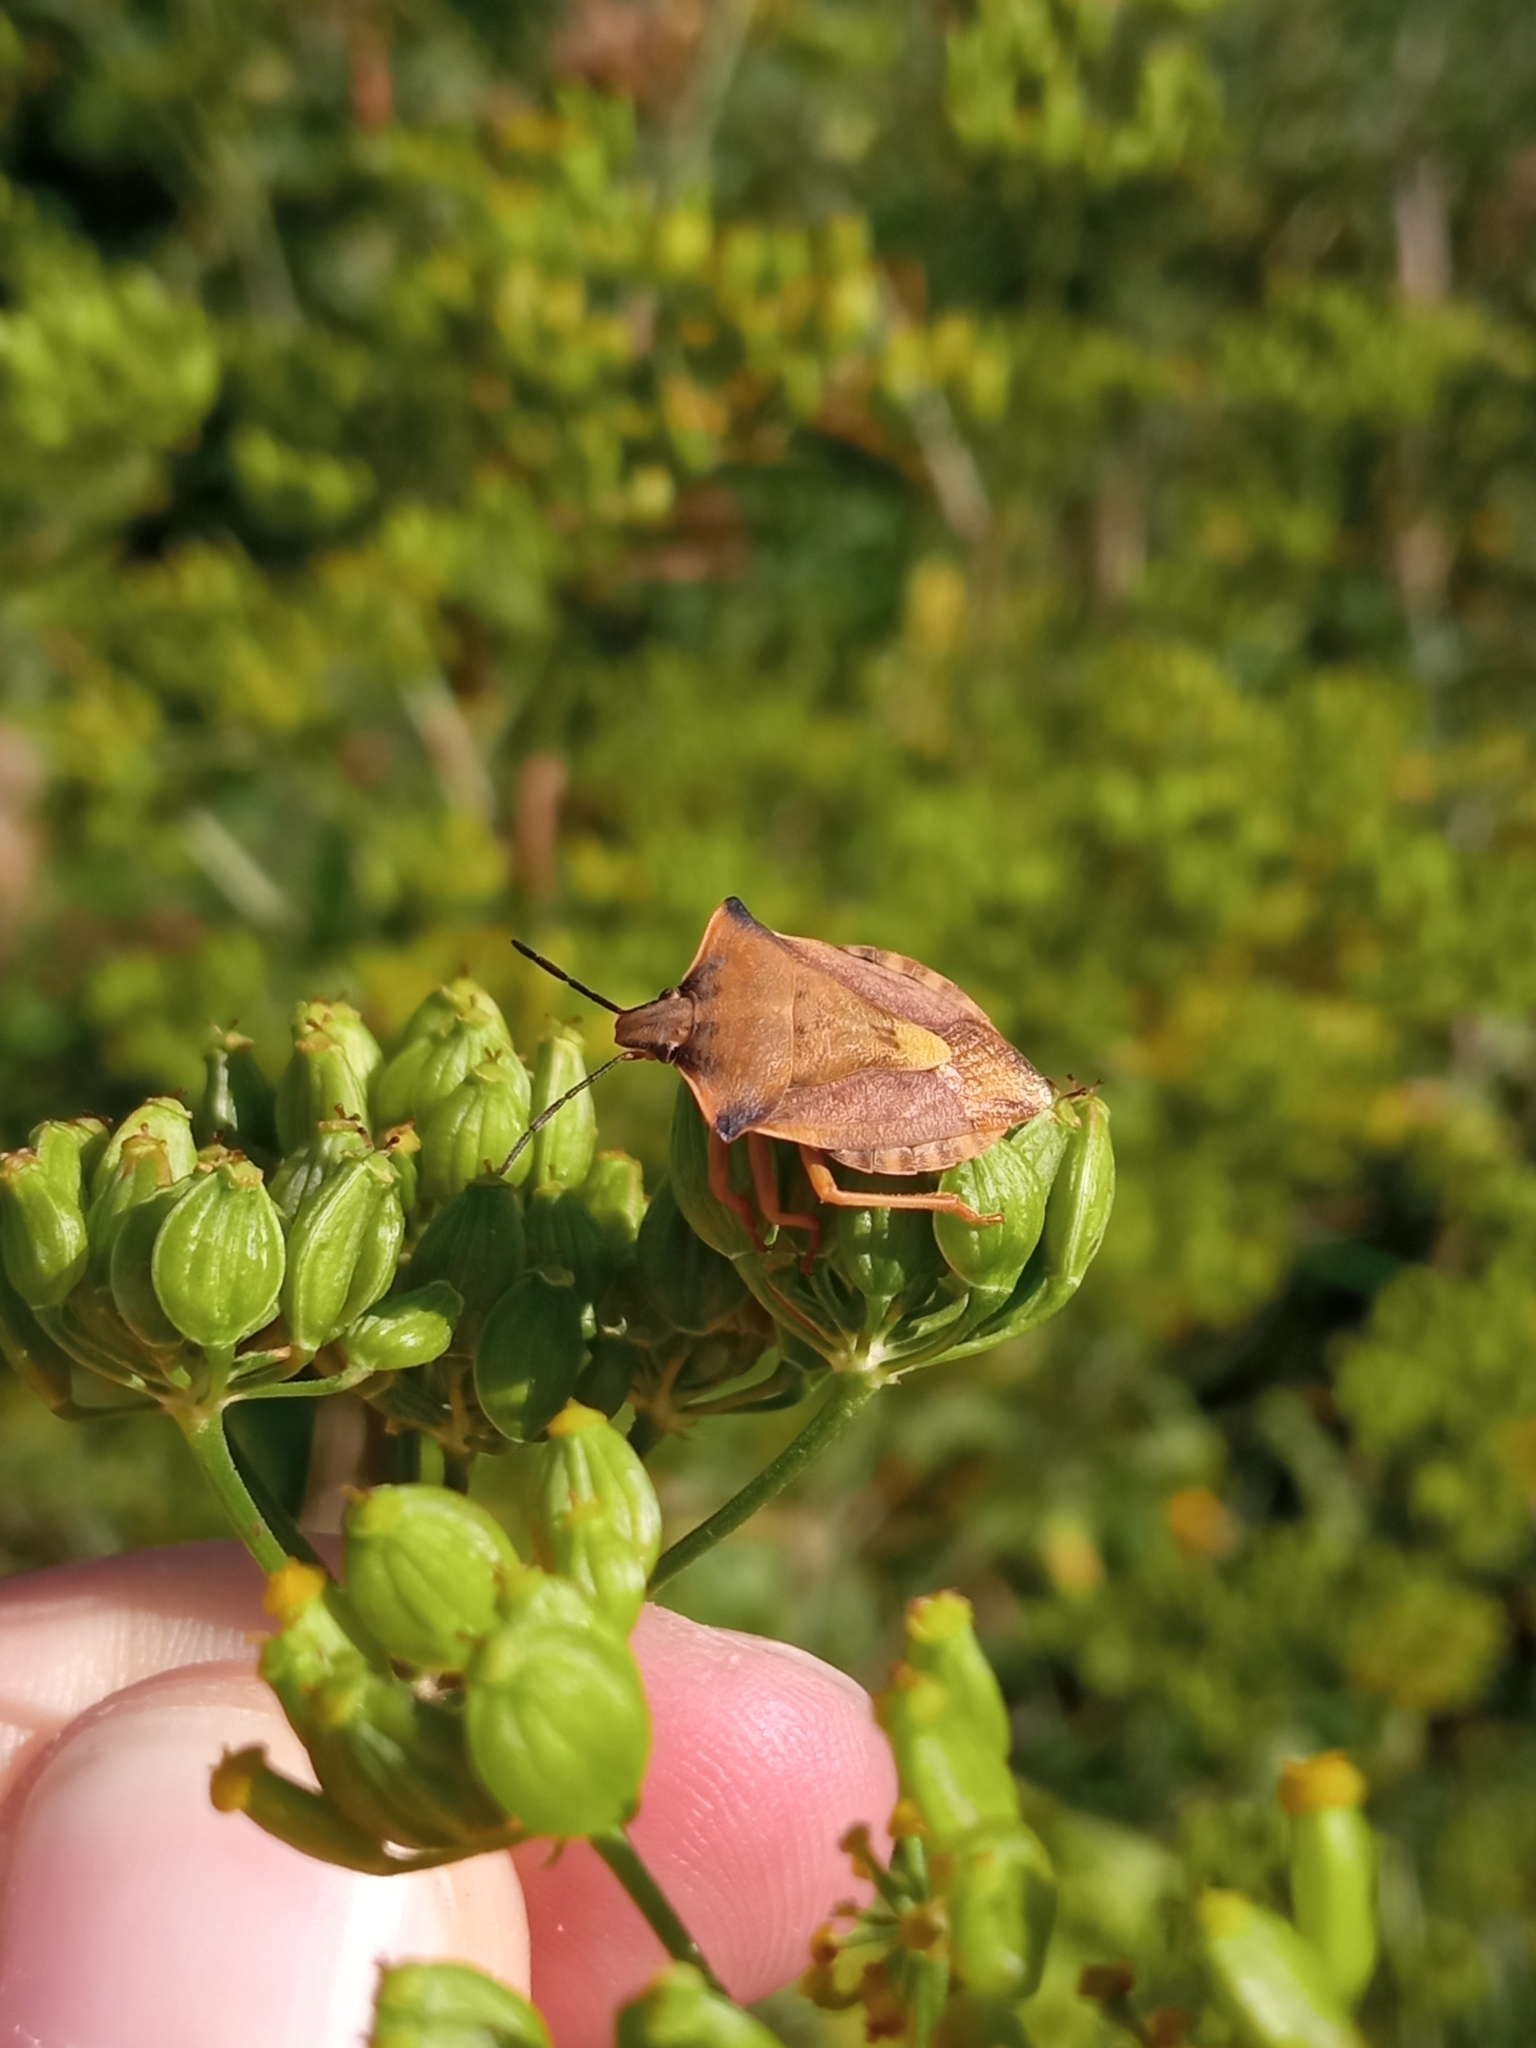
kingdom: Animalia
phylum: Arthropoda
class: Insecta
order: Hemiptera
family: Pentatomidae
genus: Carpocoris
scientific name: Carpocoris fuscispinus
